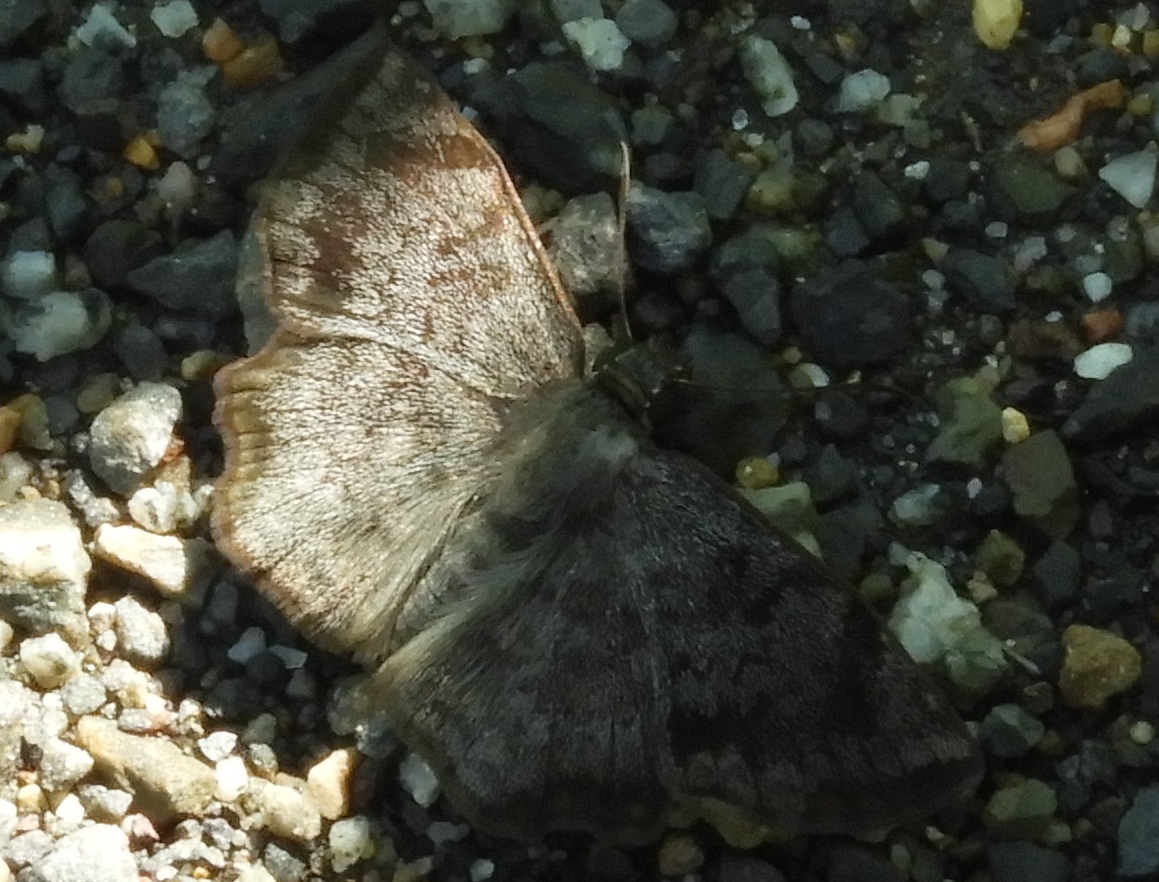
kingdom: Animalia
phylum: Arthropoda
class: Insecta
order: Lepidoptera
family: Hesperiidae
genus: Antigonus
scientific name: Antigonus erosus
